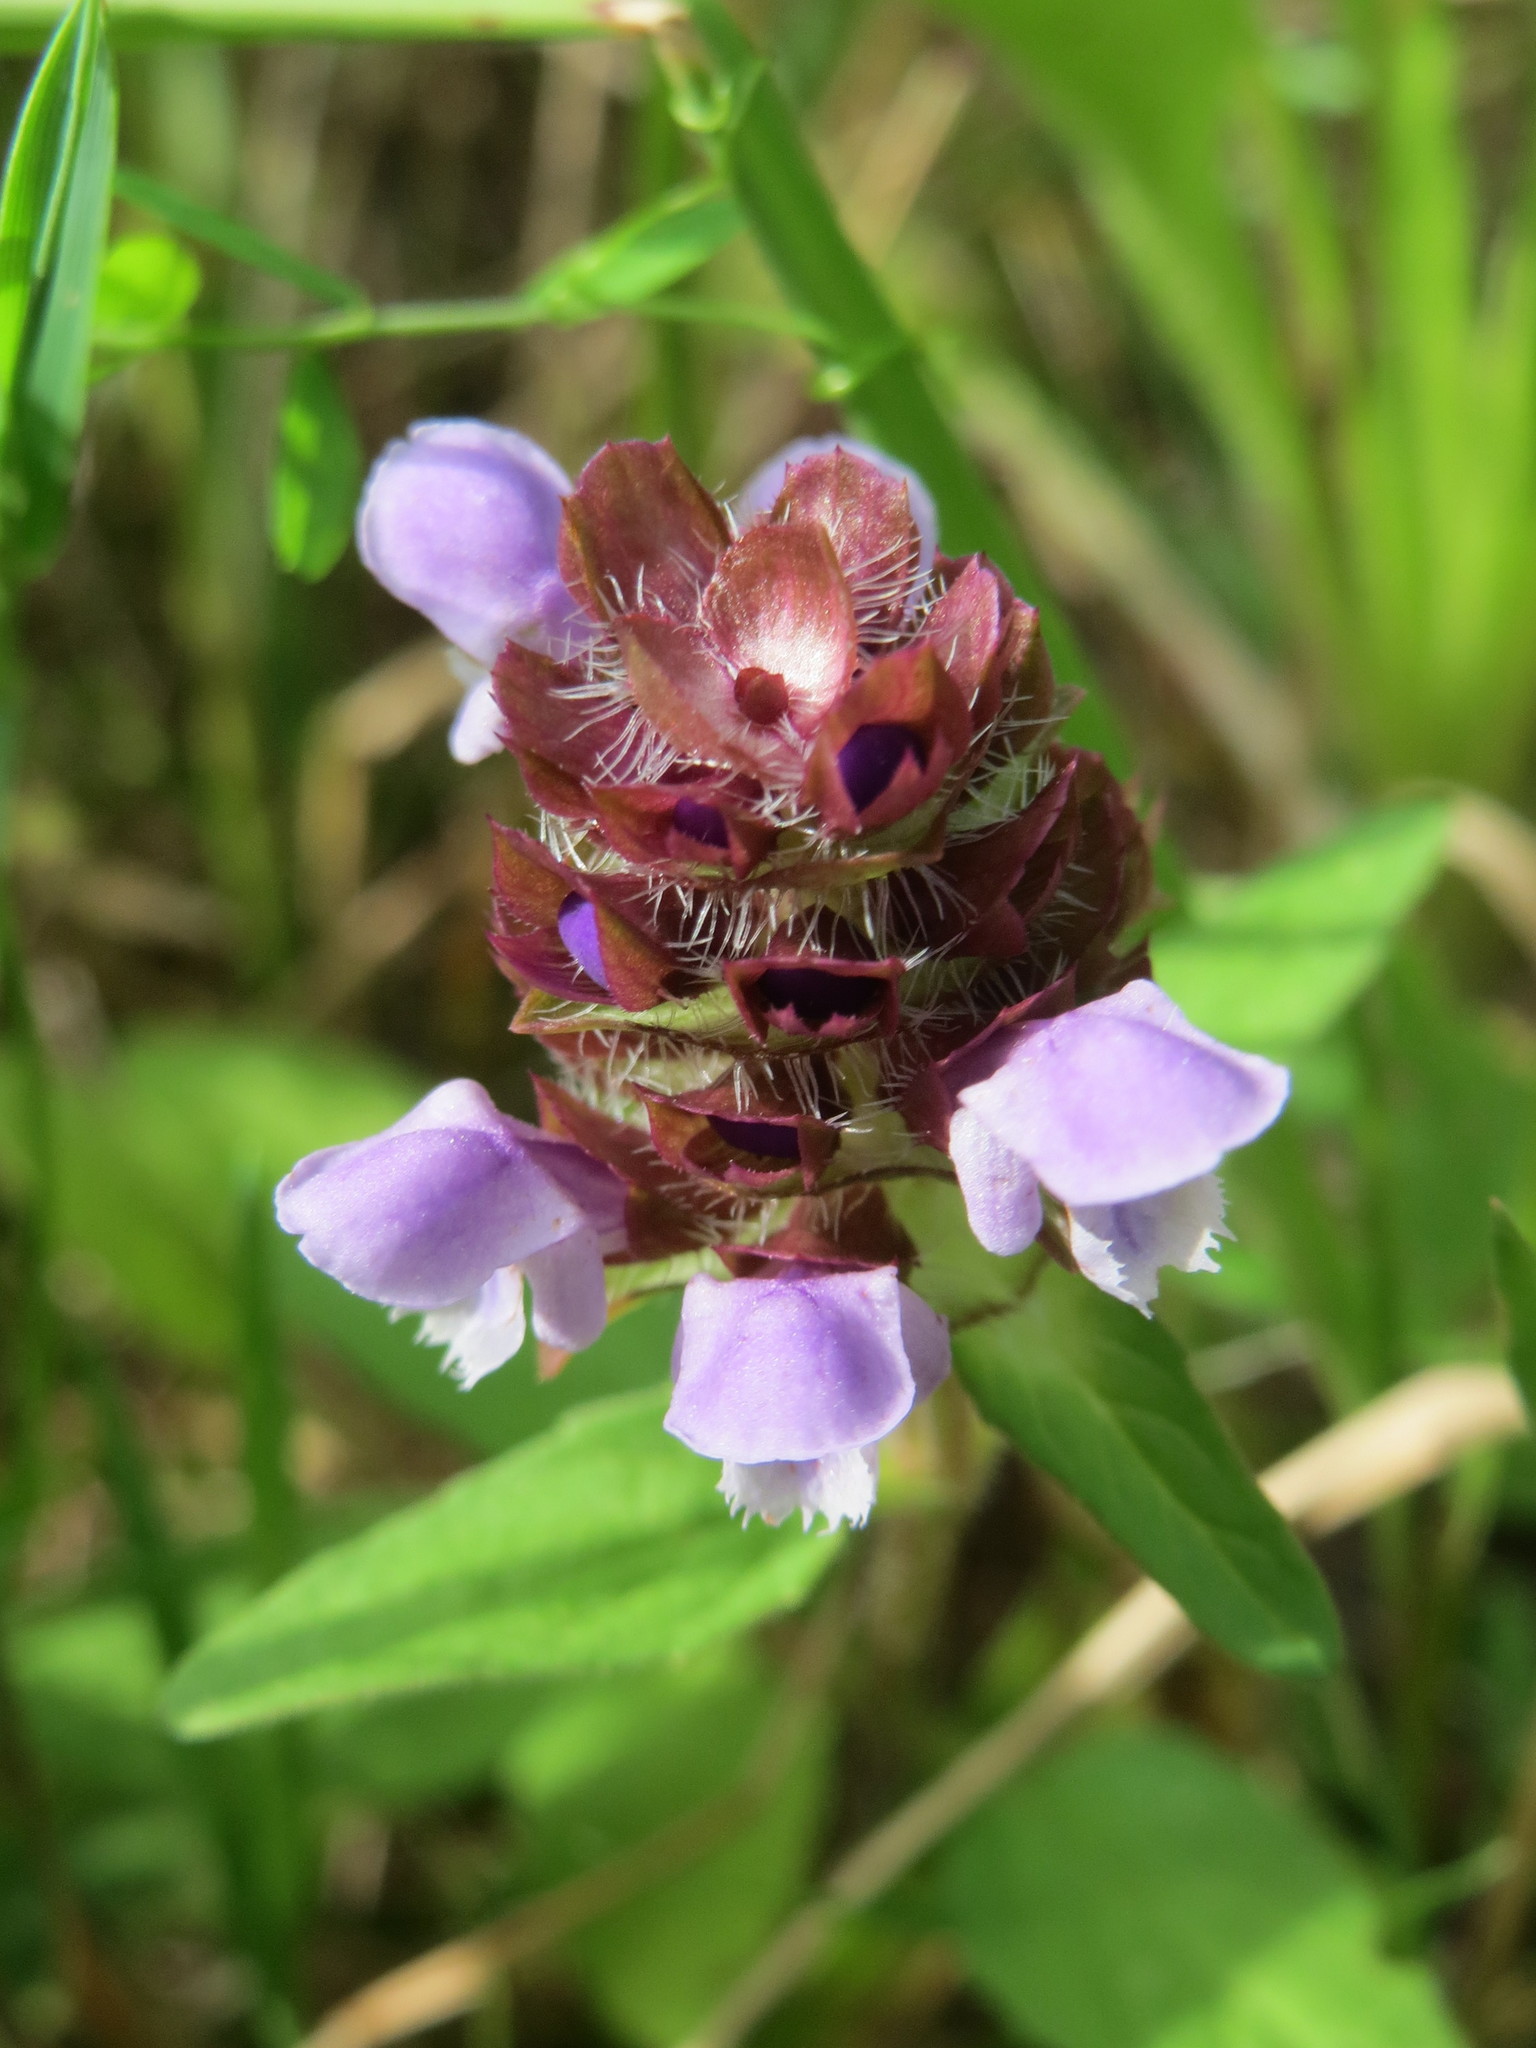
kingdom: Plantae
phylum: Tracheophyta
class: Magnoliopsida
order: Lamiales
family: Lamiaceae
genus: Prunella
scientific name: Prunella vulgaris
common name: Heal-all
